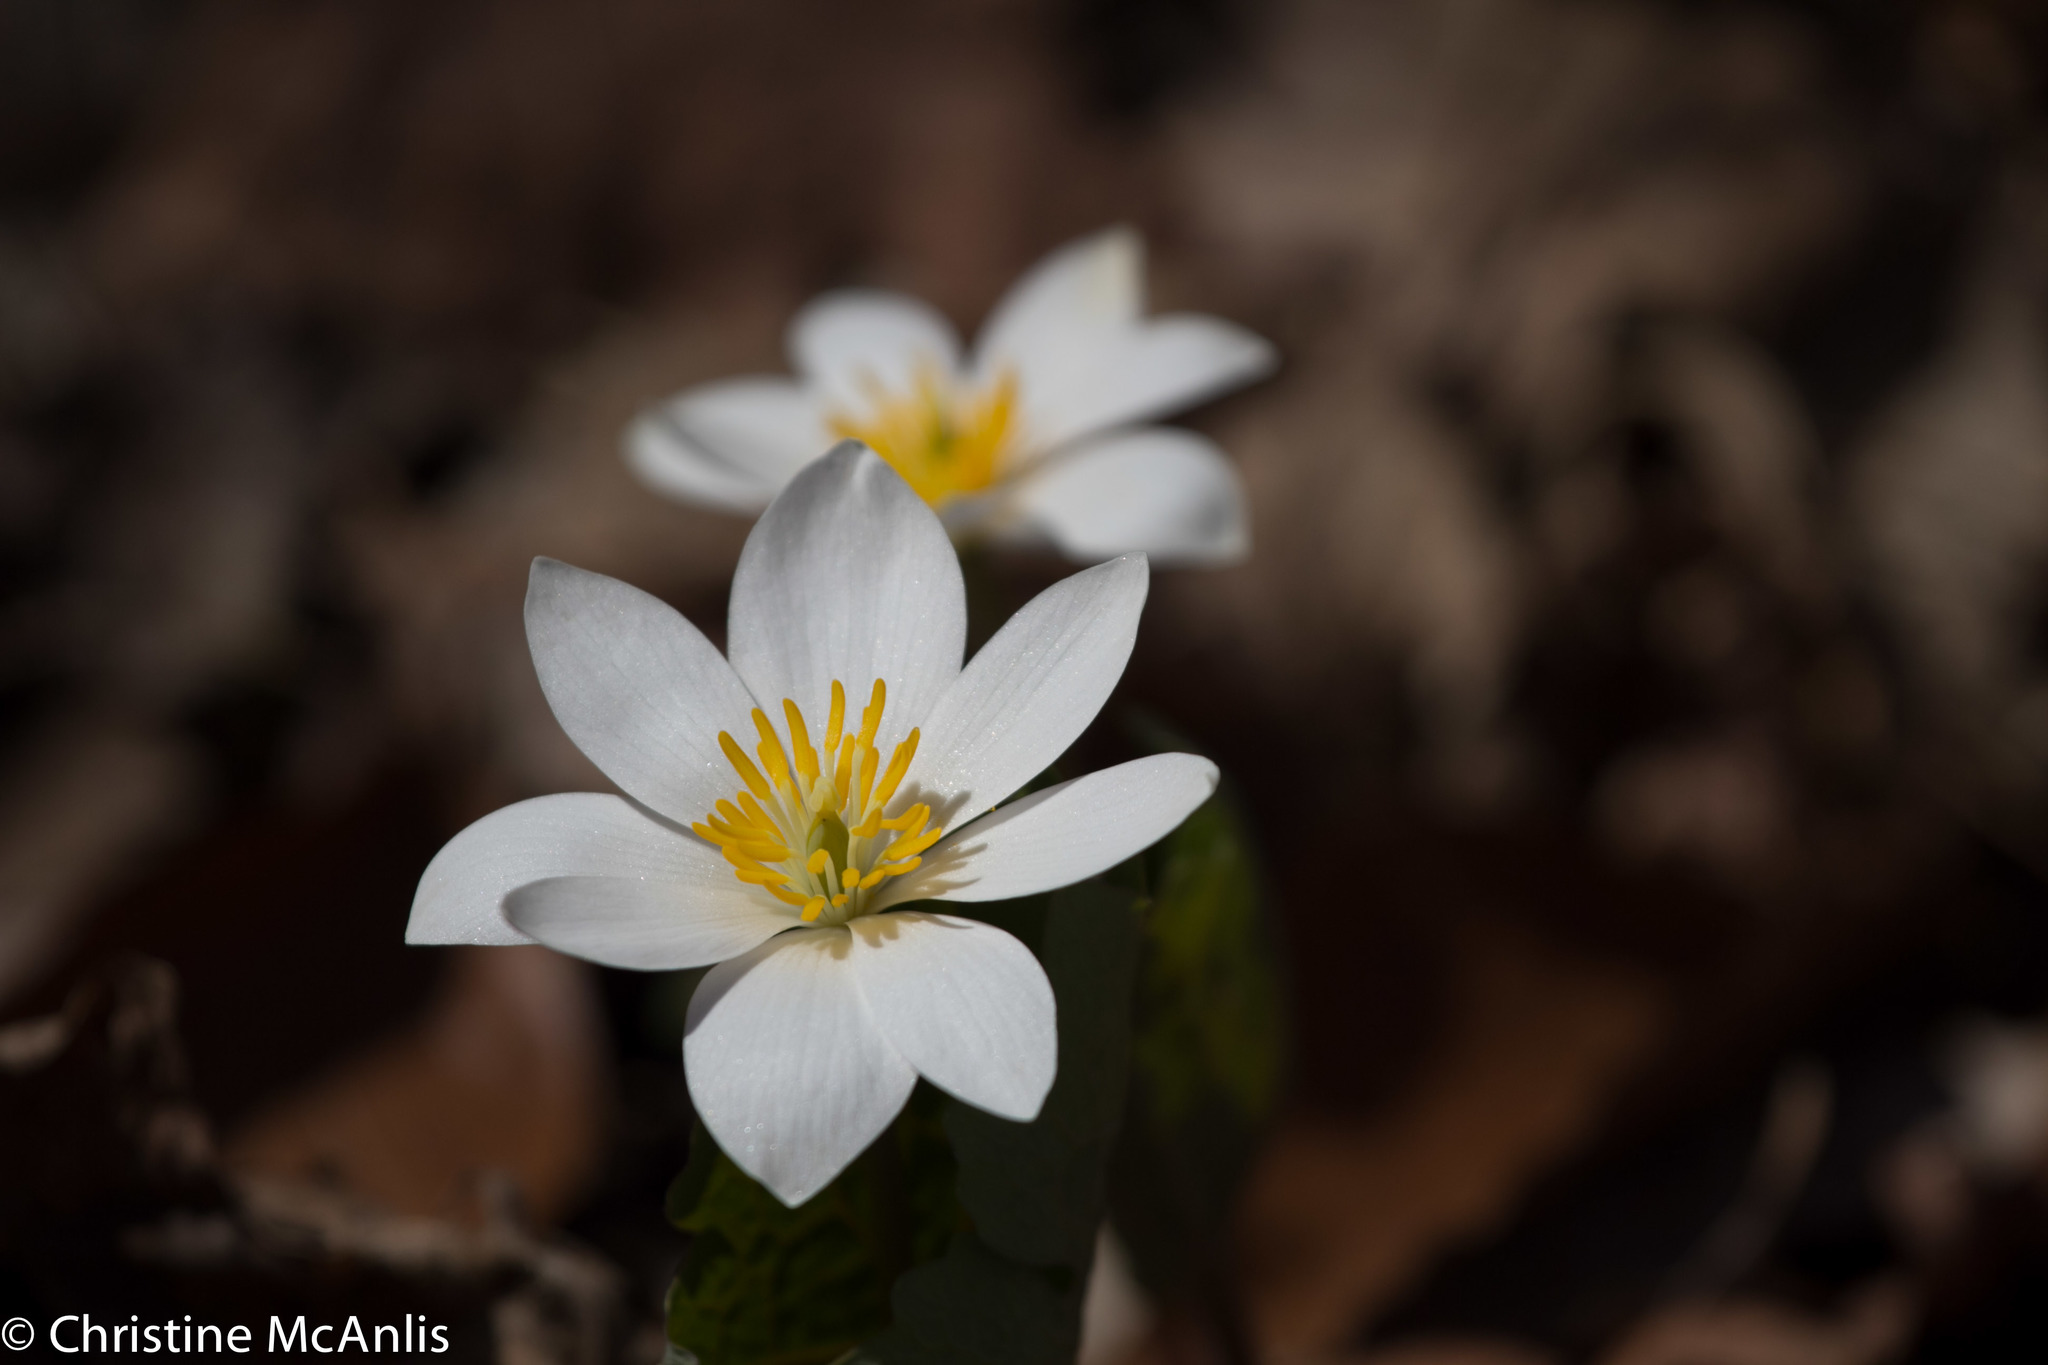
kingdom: Plantae
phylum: Tracheophyta
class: Magnoliopsida
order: Ranunculales
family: Papaveraceae
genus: Sanguinaria
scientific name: Sanguinaria canadensis
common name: Bloodroot
